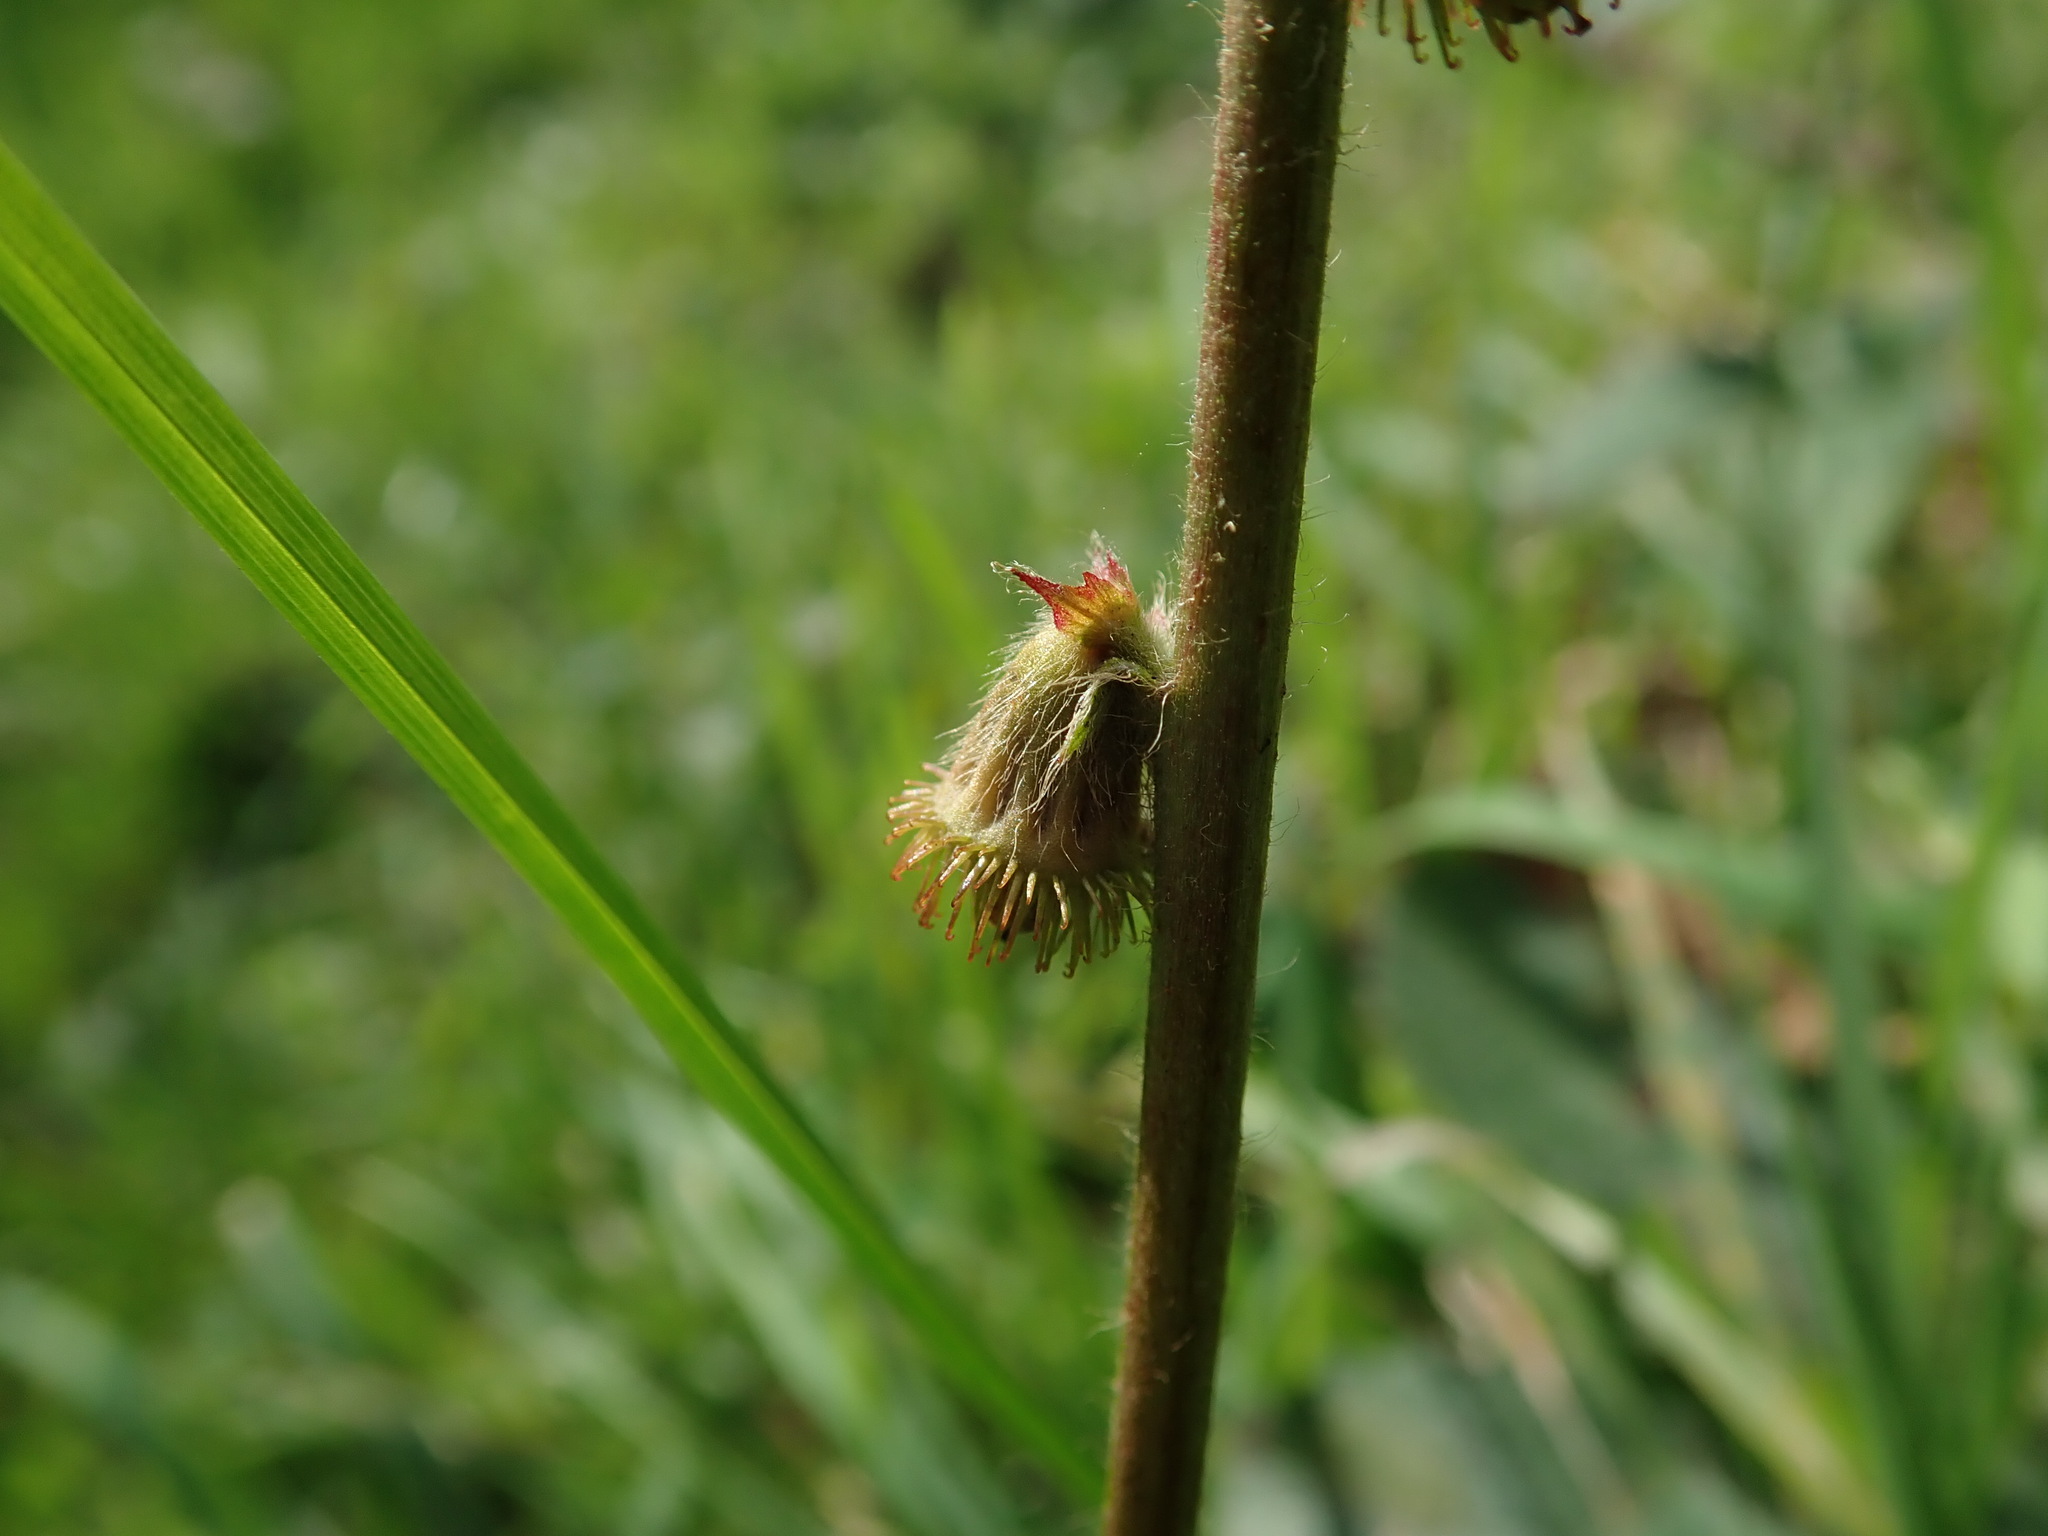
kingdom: Plantae
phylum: Tracheophyta
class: Magnoliopsida
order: Rosales
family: Rosaceae
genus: Agrimonia
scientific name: Agrimonia eupatoria
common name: Agrimony
